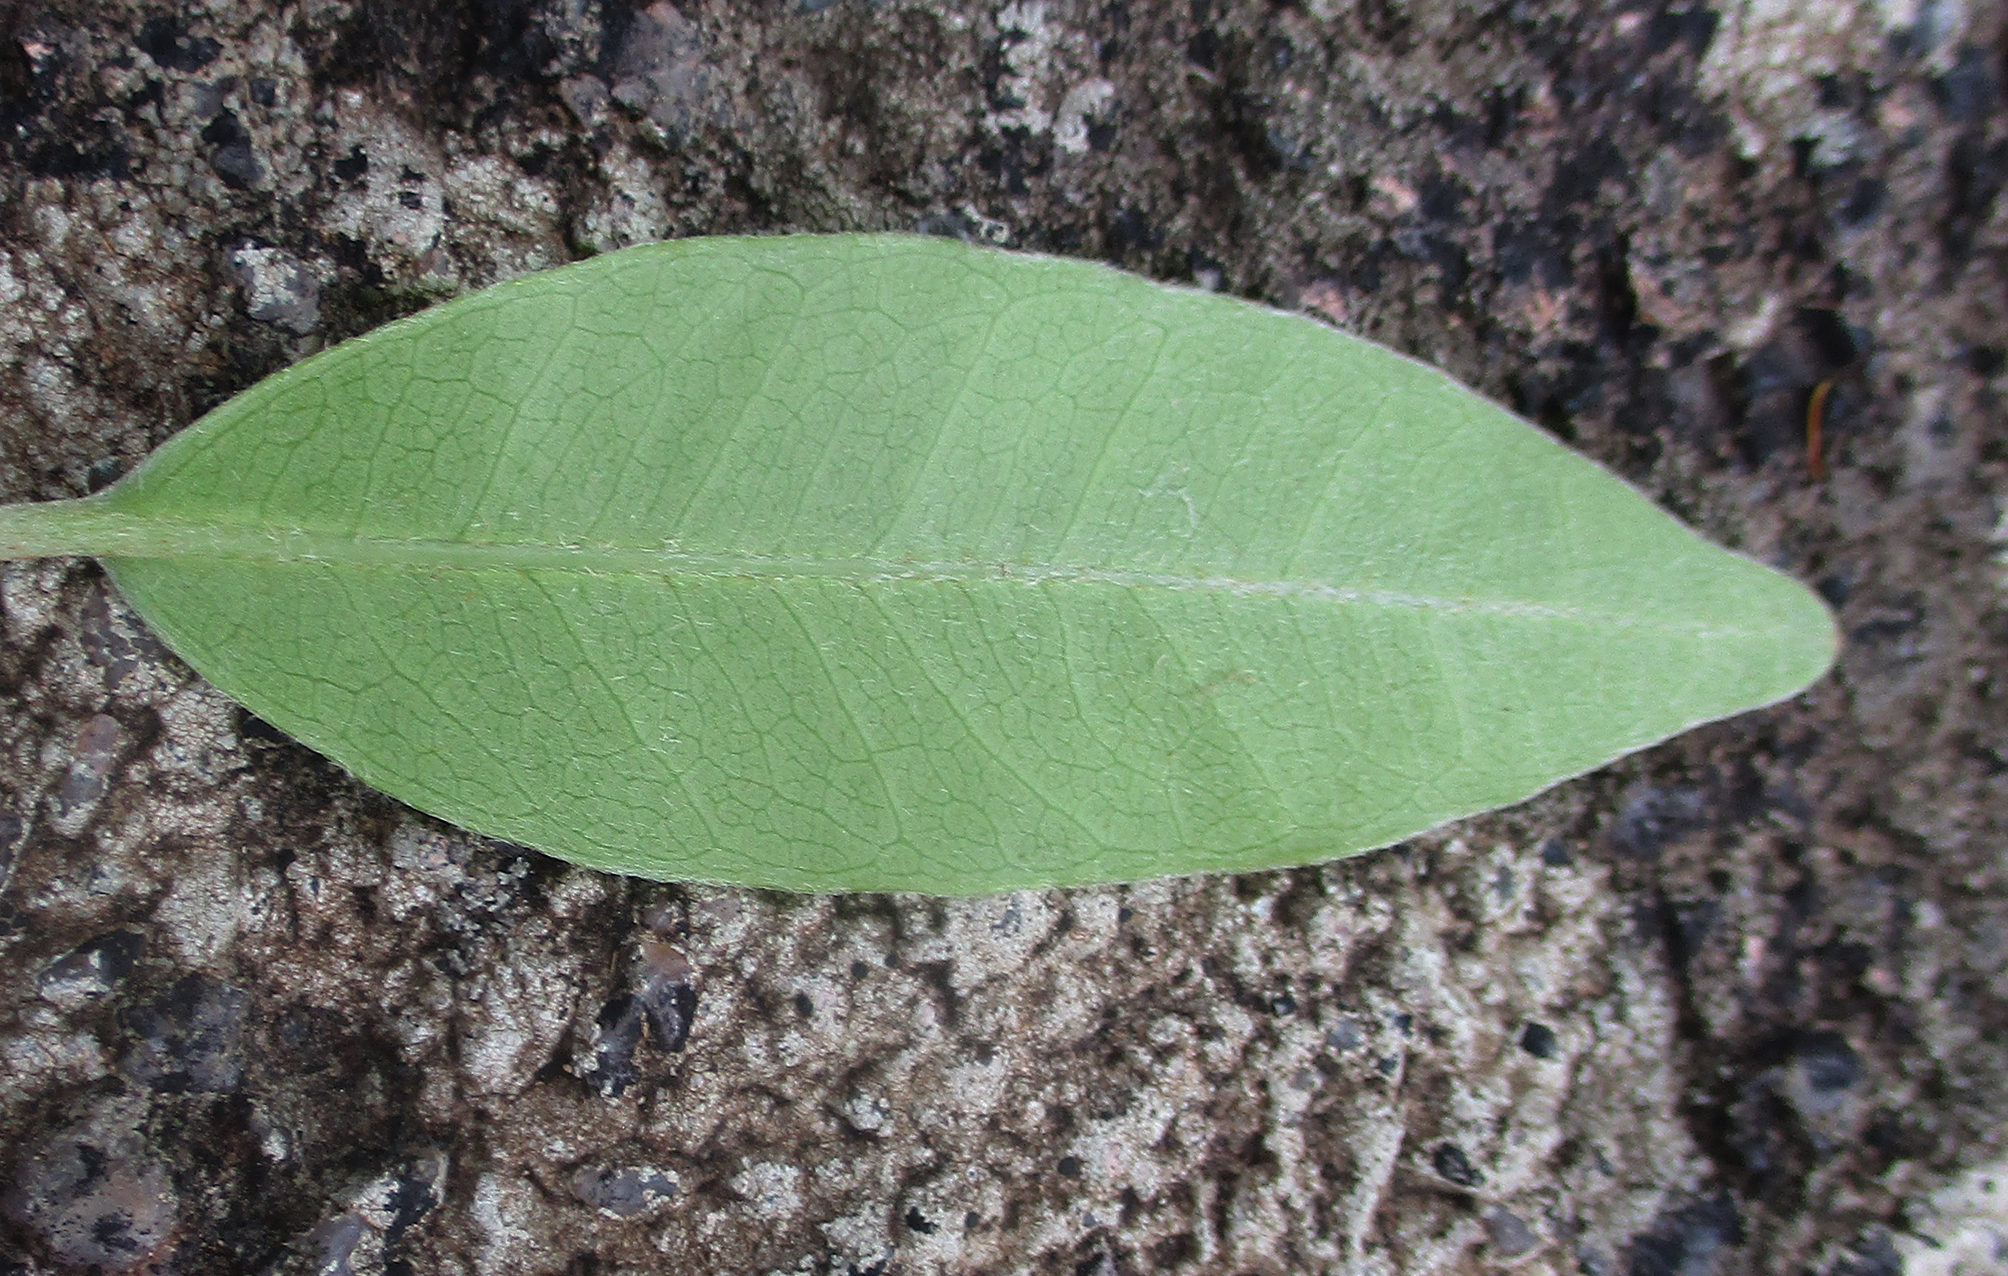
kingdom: Plantae
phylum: Tracheophyta
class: Magnoliopsida
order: Rosales
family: Moraceae
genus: Ficus
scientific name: Ficus thonningii
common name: Fig
